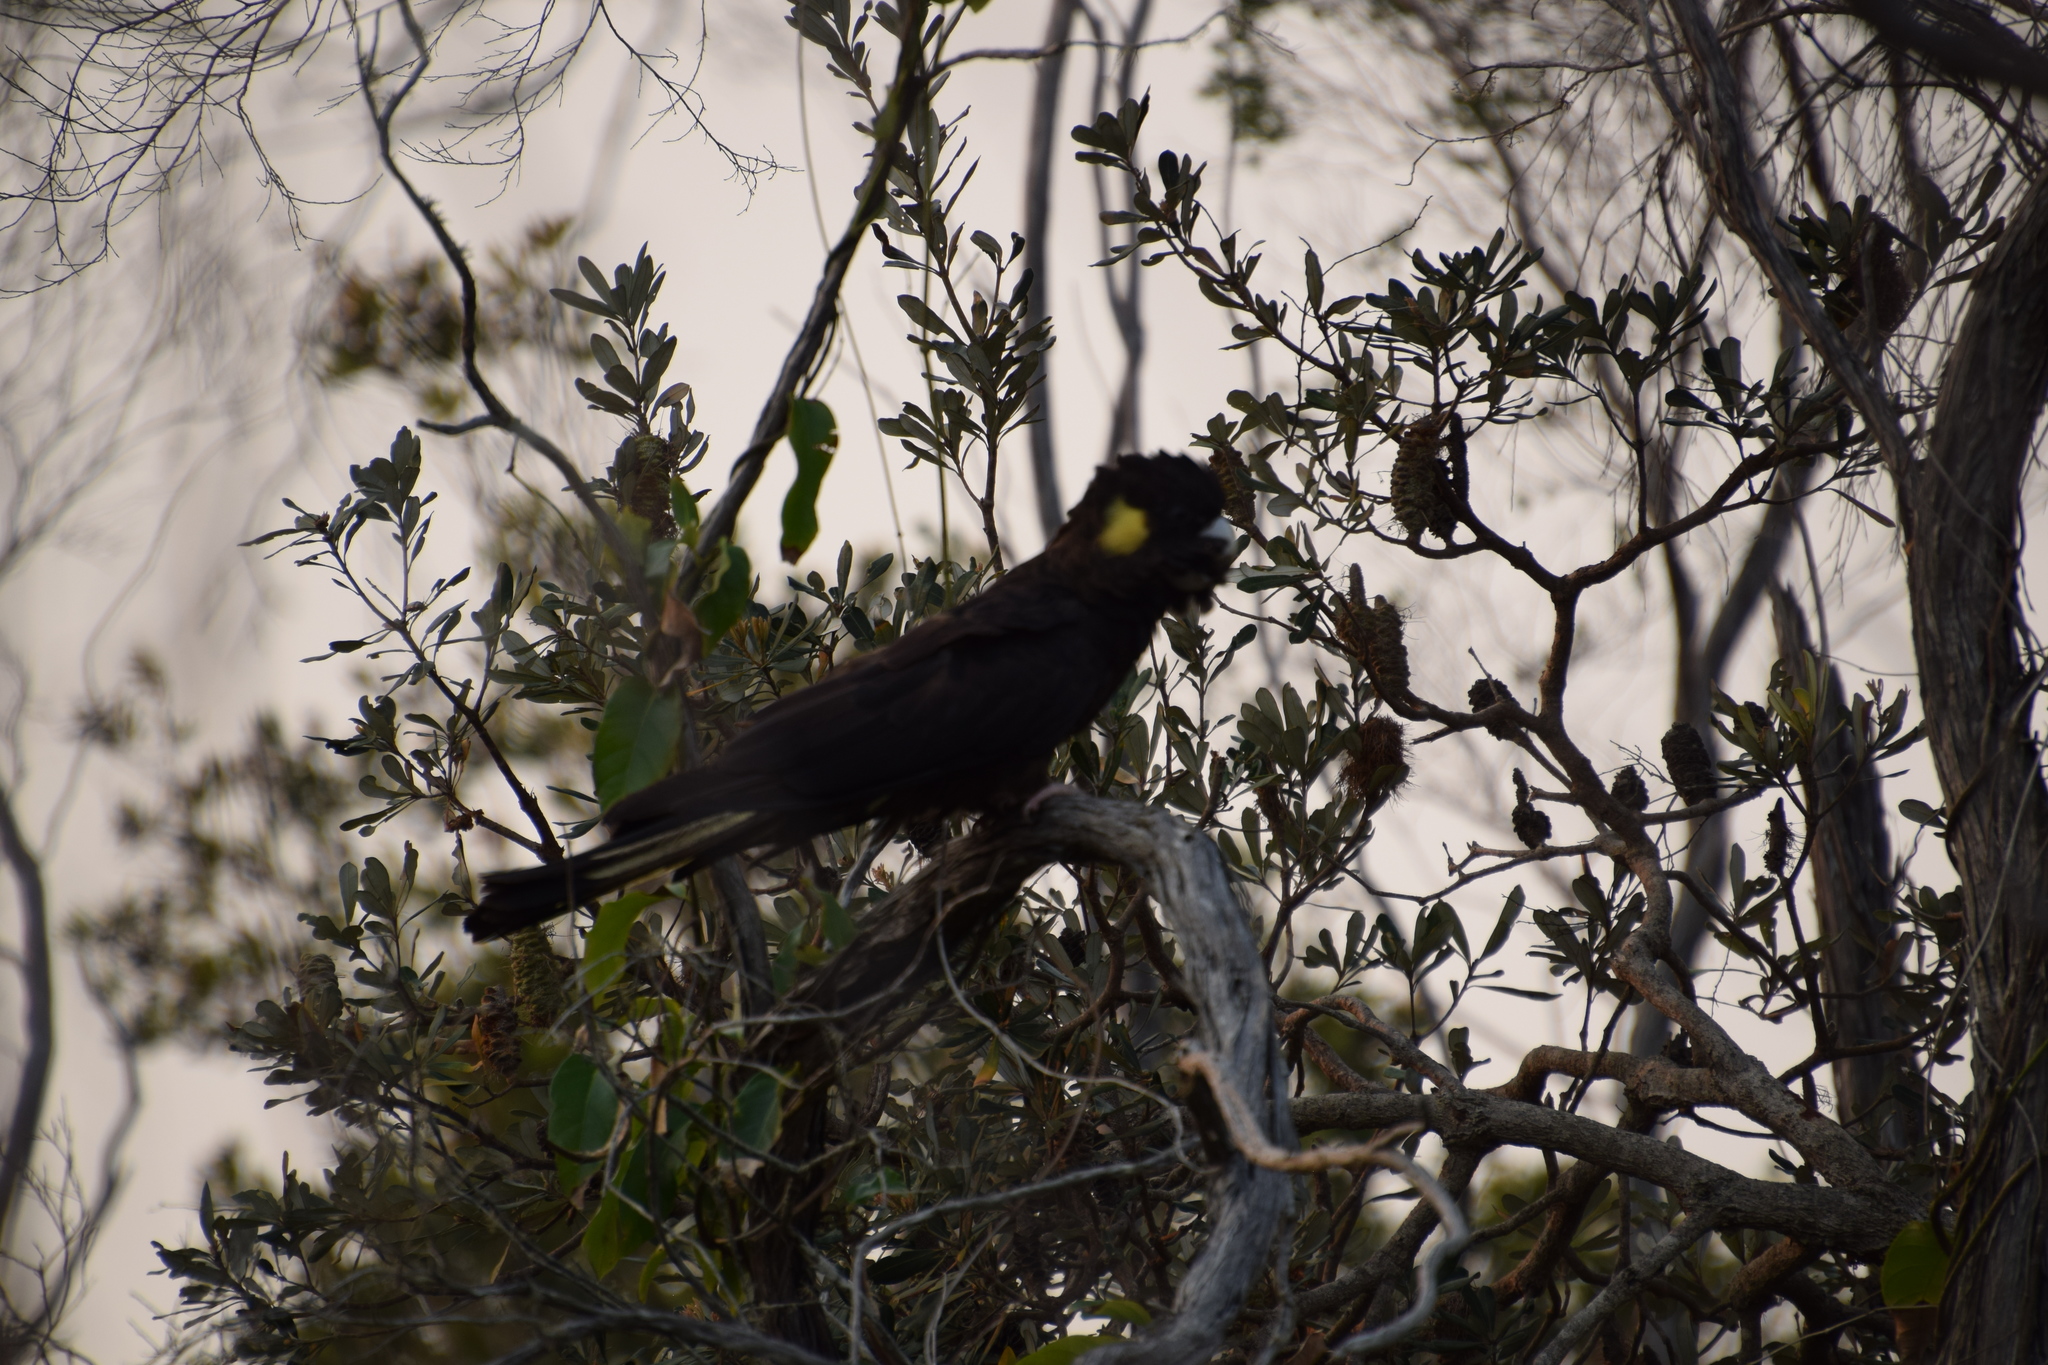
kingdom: Animalia
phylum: Chordata
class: Aves
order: Psittaciformes
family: Cacatuidae
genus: Zanda
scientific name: Zanda funerea
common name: Yellow-tailed black-cockatoo
